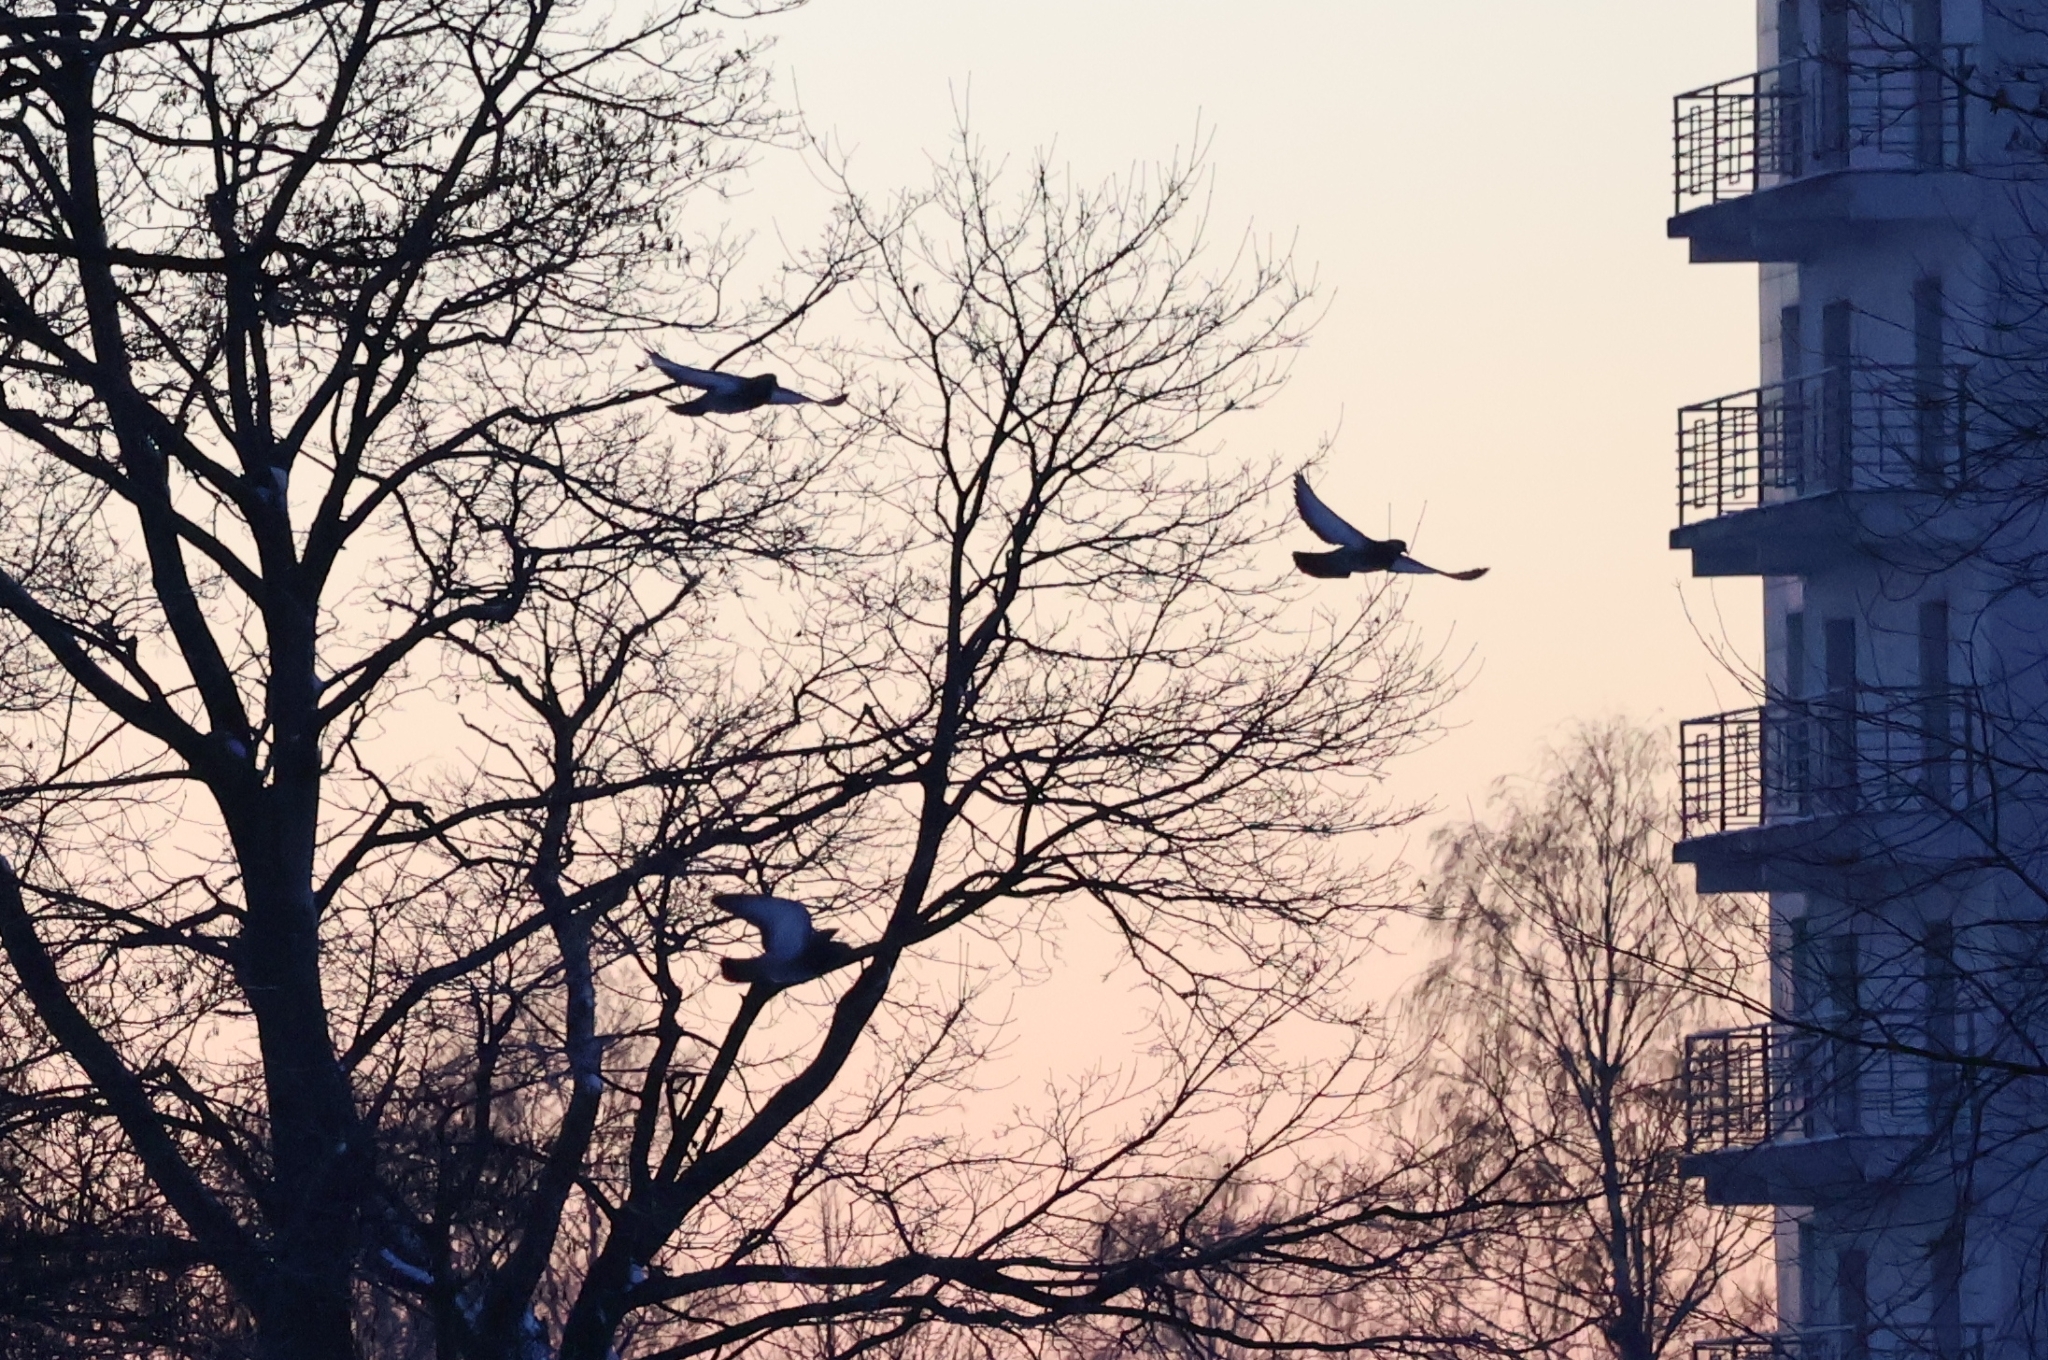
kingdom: Animalia
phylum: Chordata
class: Aves
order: Columbiformes
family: Columbidae
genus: Columba
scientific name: Columba livia
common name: Rock pigeon
